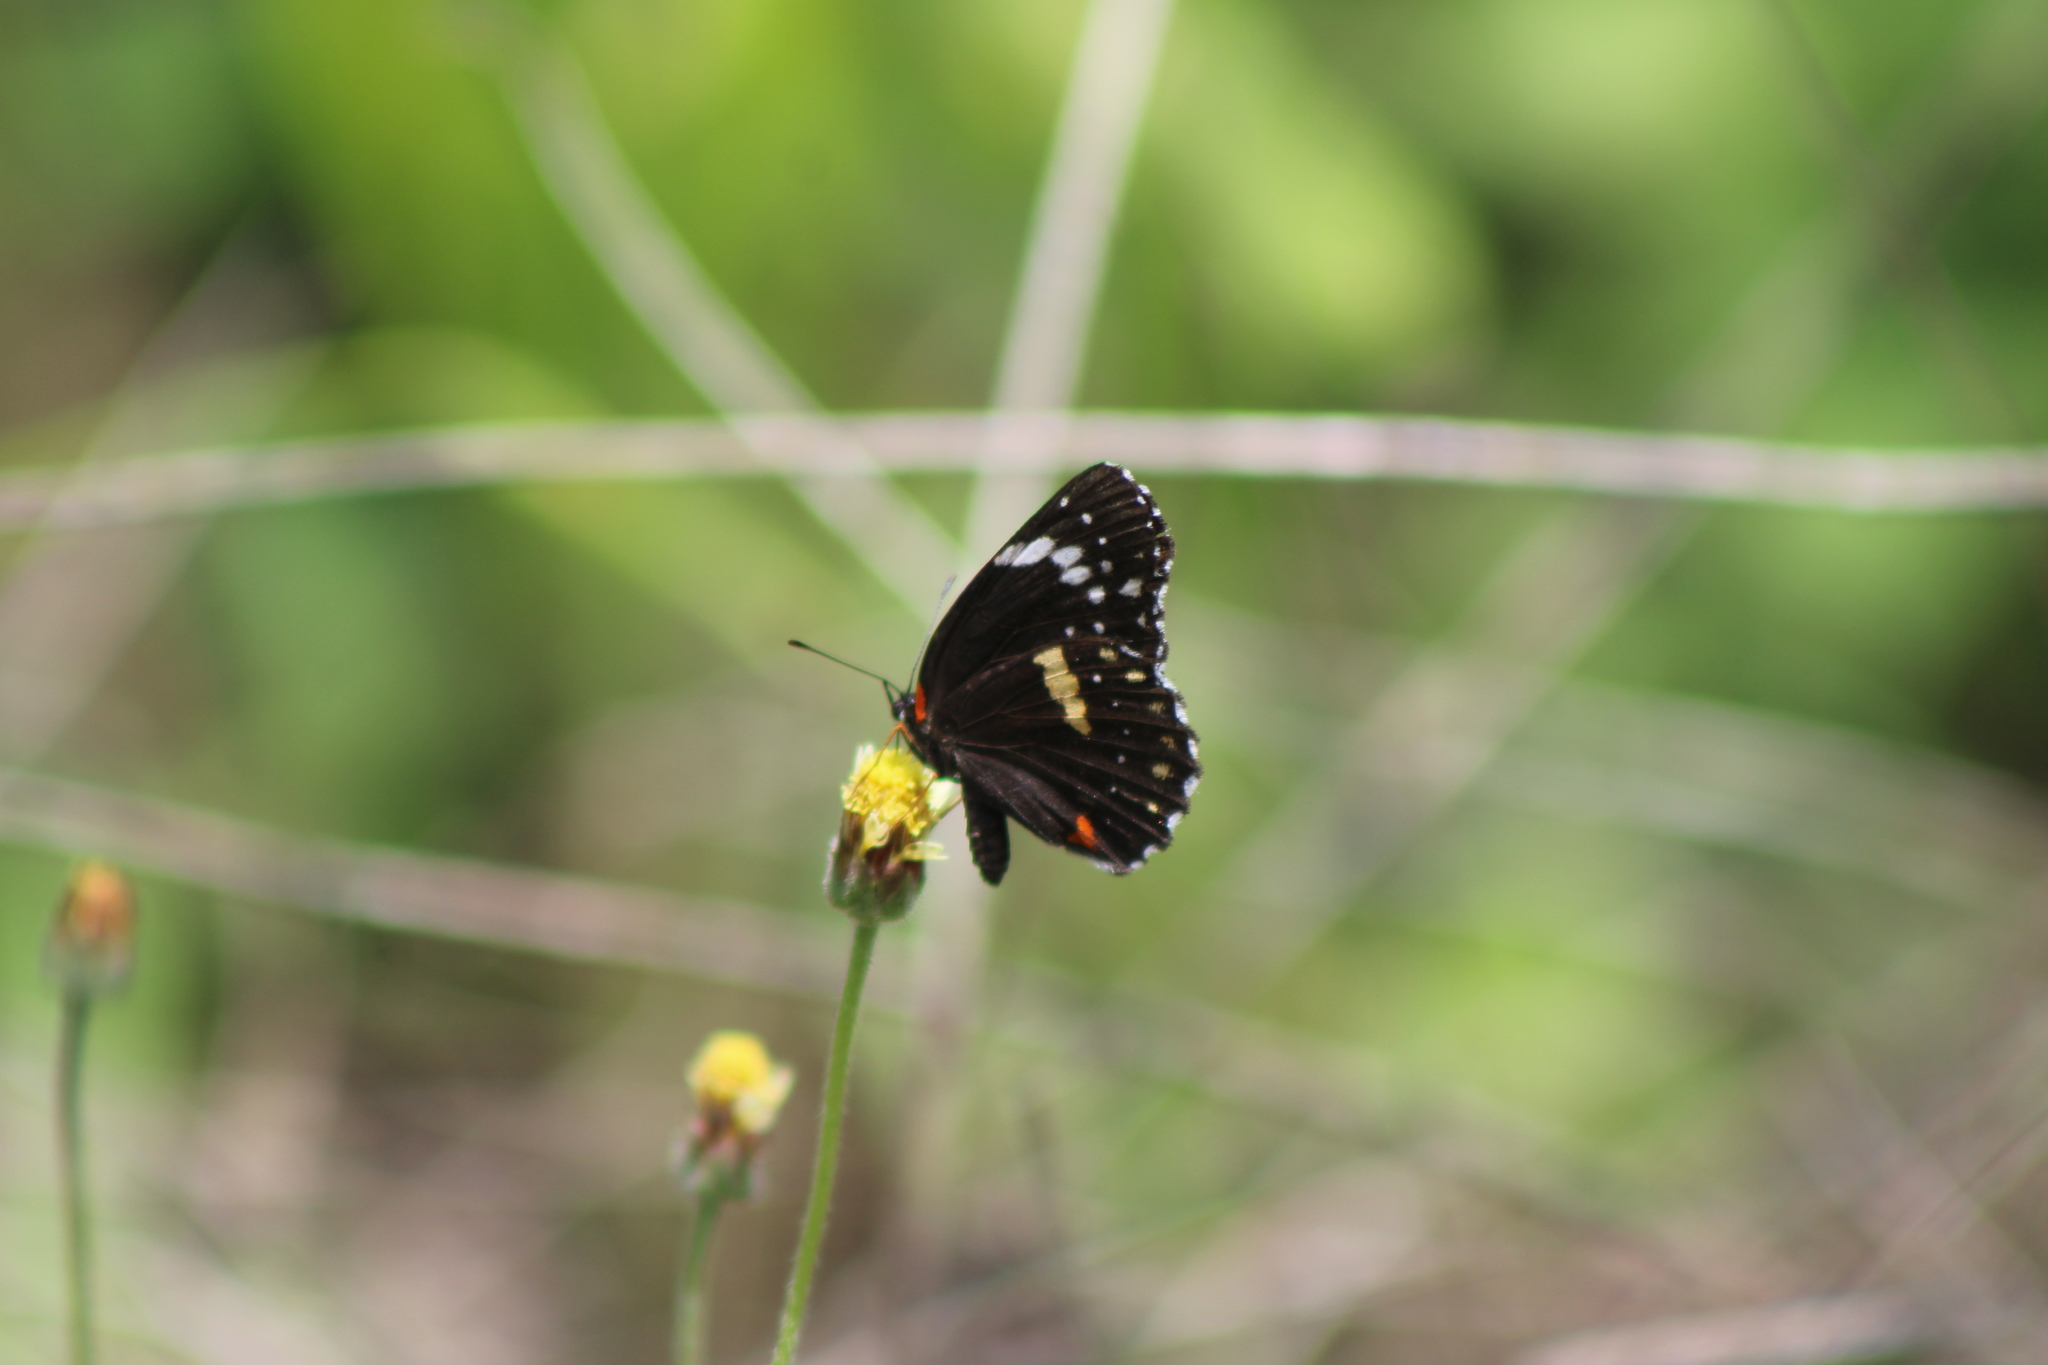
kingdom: Animalia
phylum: Arthropoda
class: Insecta
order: Lepidoptera
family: Nymphalidae
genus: Chlosyne
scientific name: Chlosyne lacinia
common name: Bordered patch
